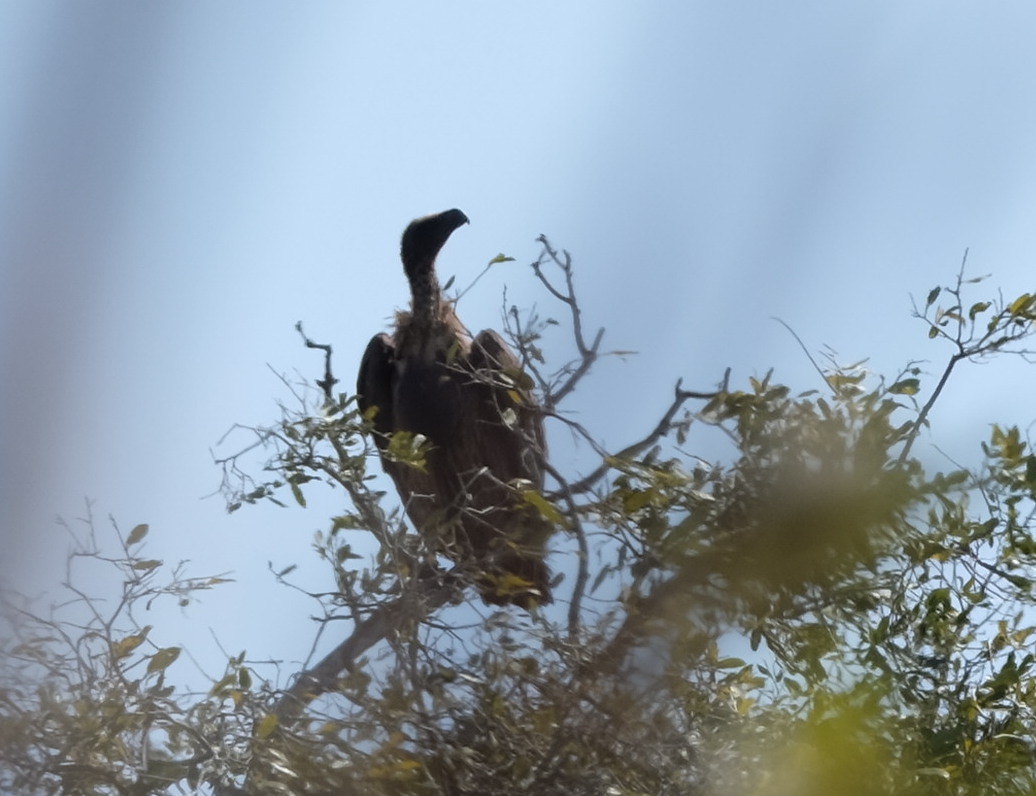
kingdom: Animalia
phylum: Chordata
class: Aves
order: Accipitriformes
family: Accipitridae
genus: Gyps
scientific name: Gyps africanus
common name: White-backed vulture
